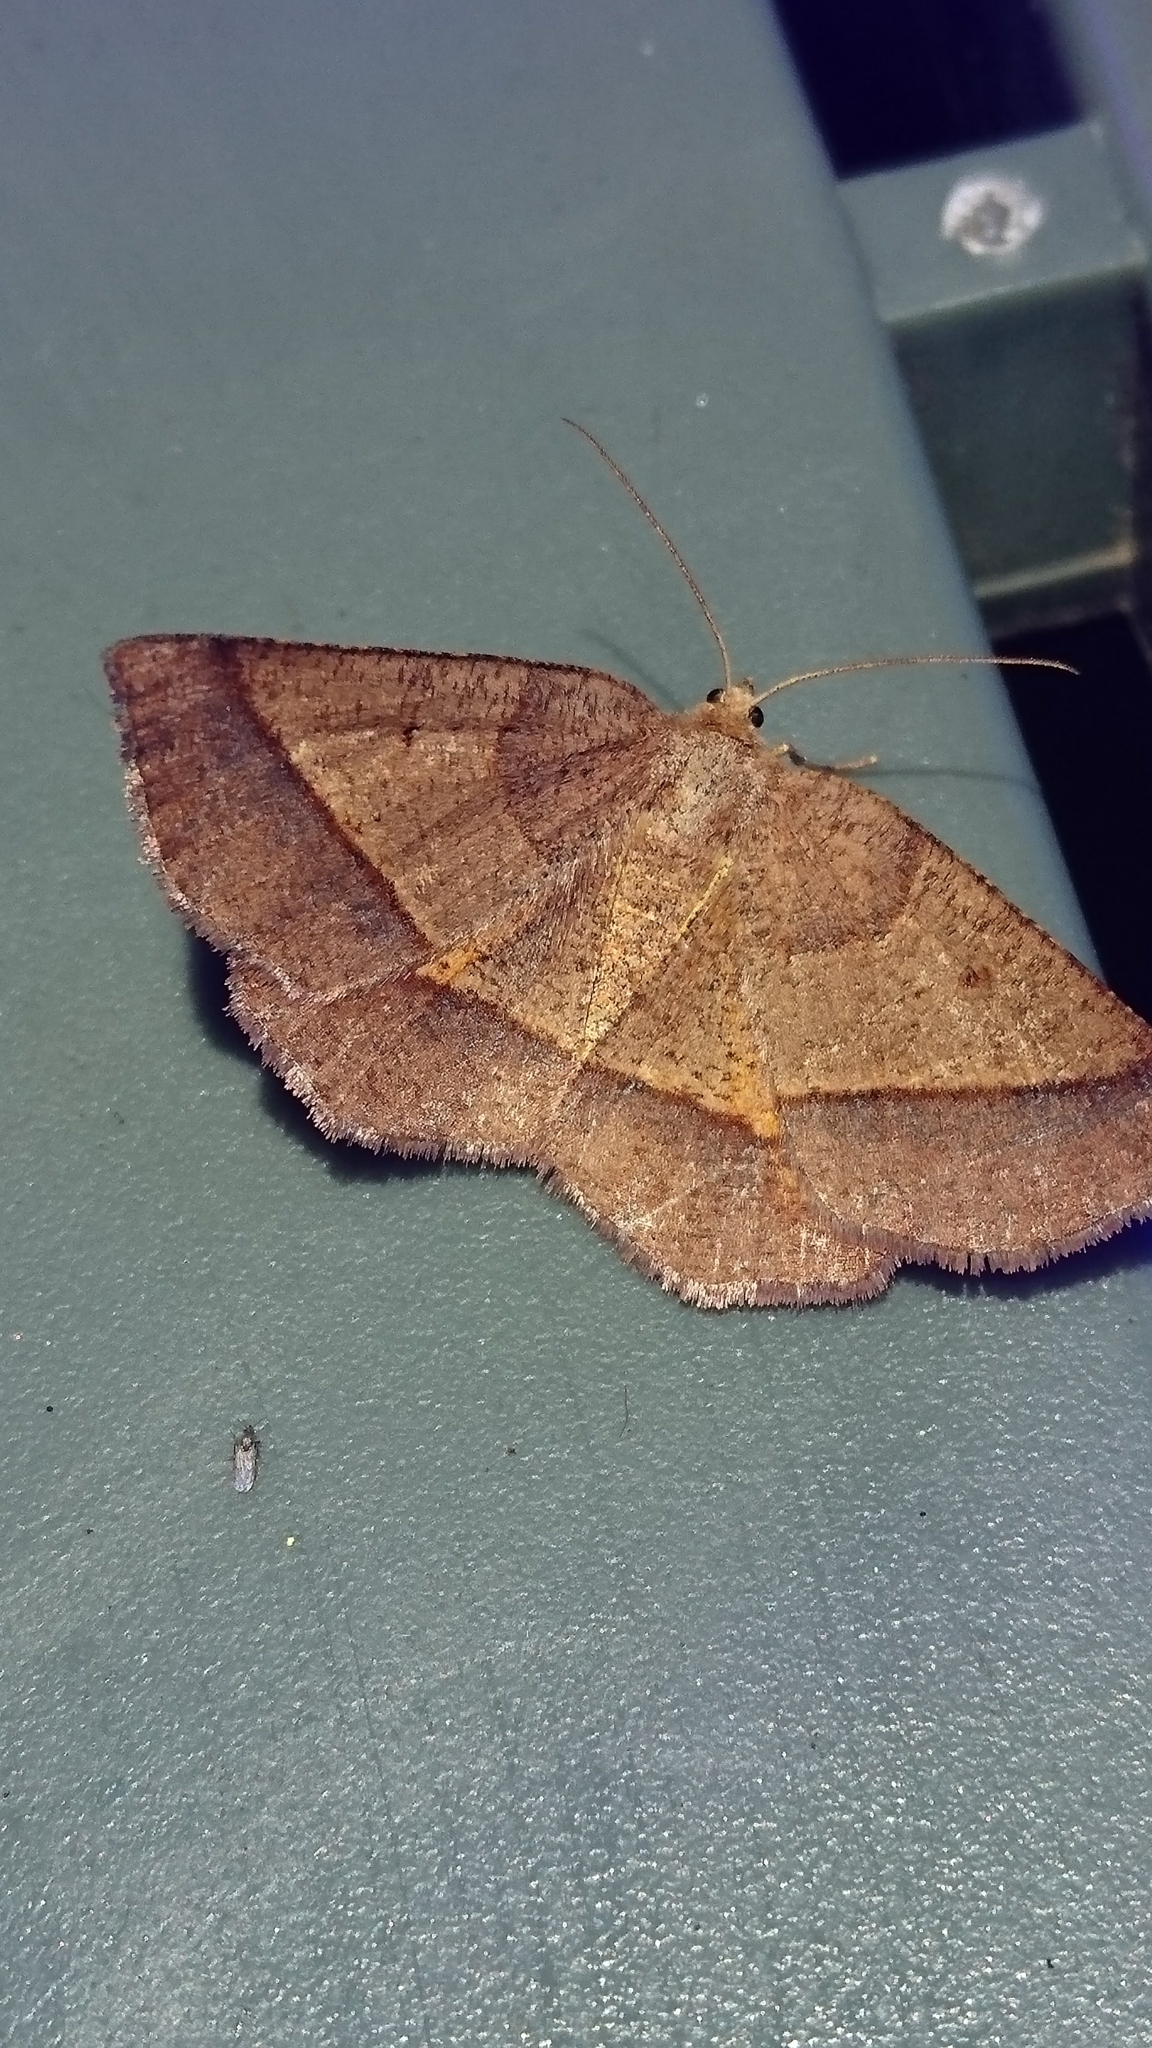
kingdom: Animalia
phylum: Arthropoda
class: Insecta
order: Lepidoptera
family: Geometridae
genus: Metarranthis
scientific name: Metarranthis obfirmaria
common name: Yellow-washed metarranthis
